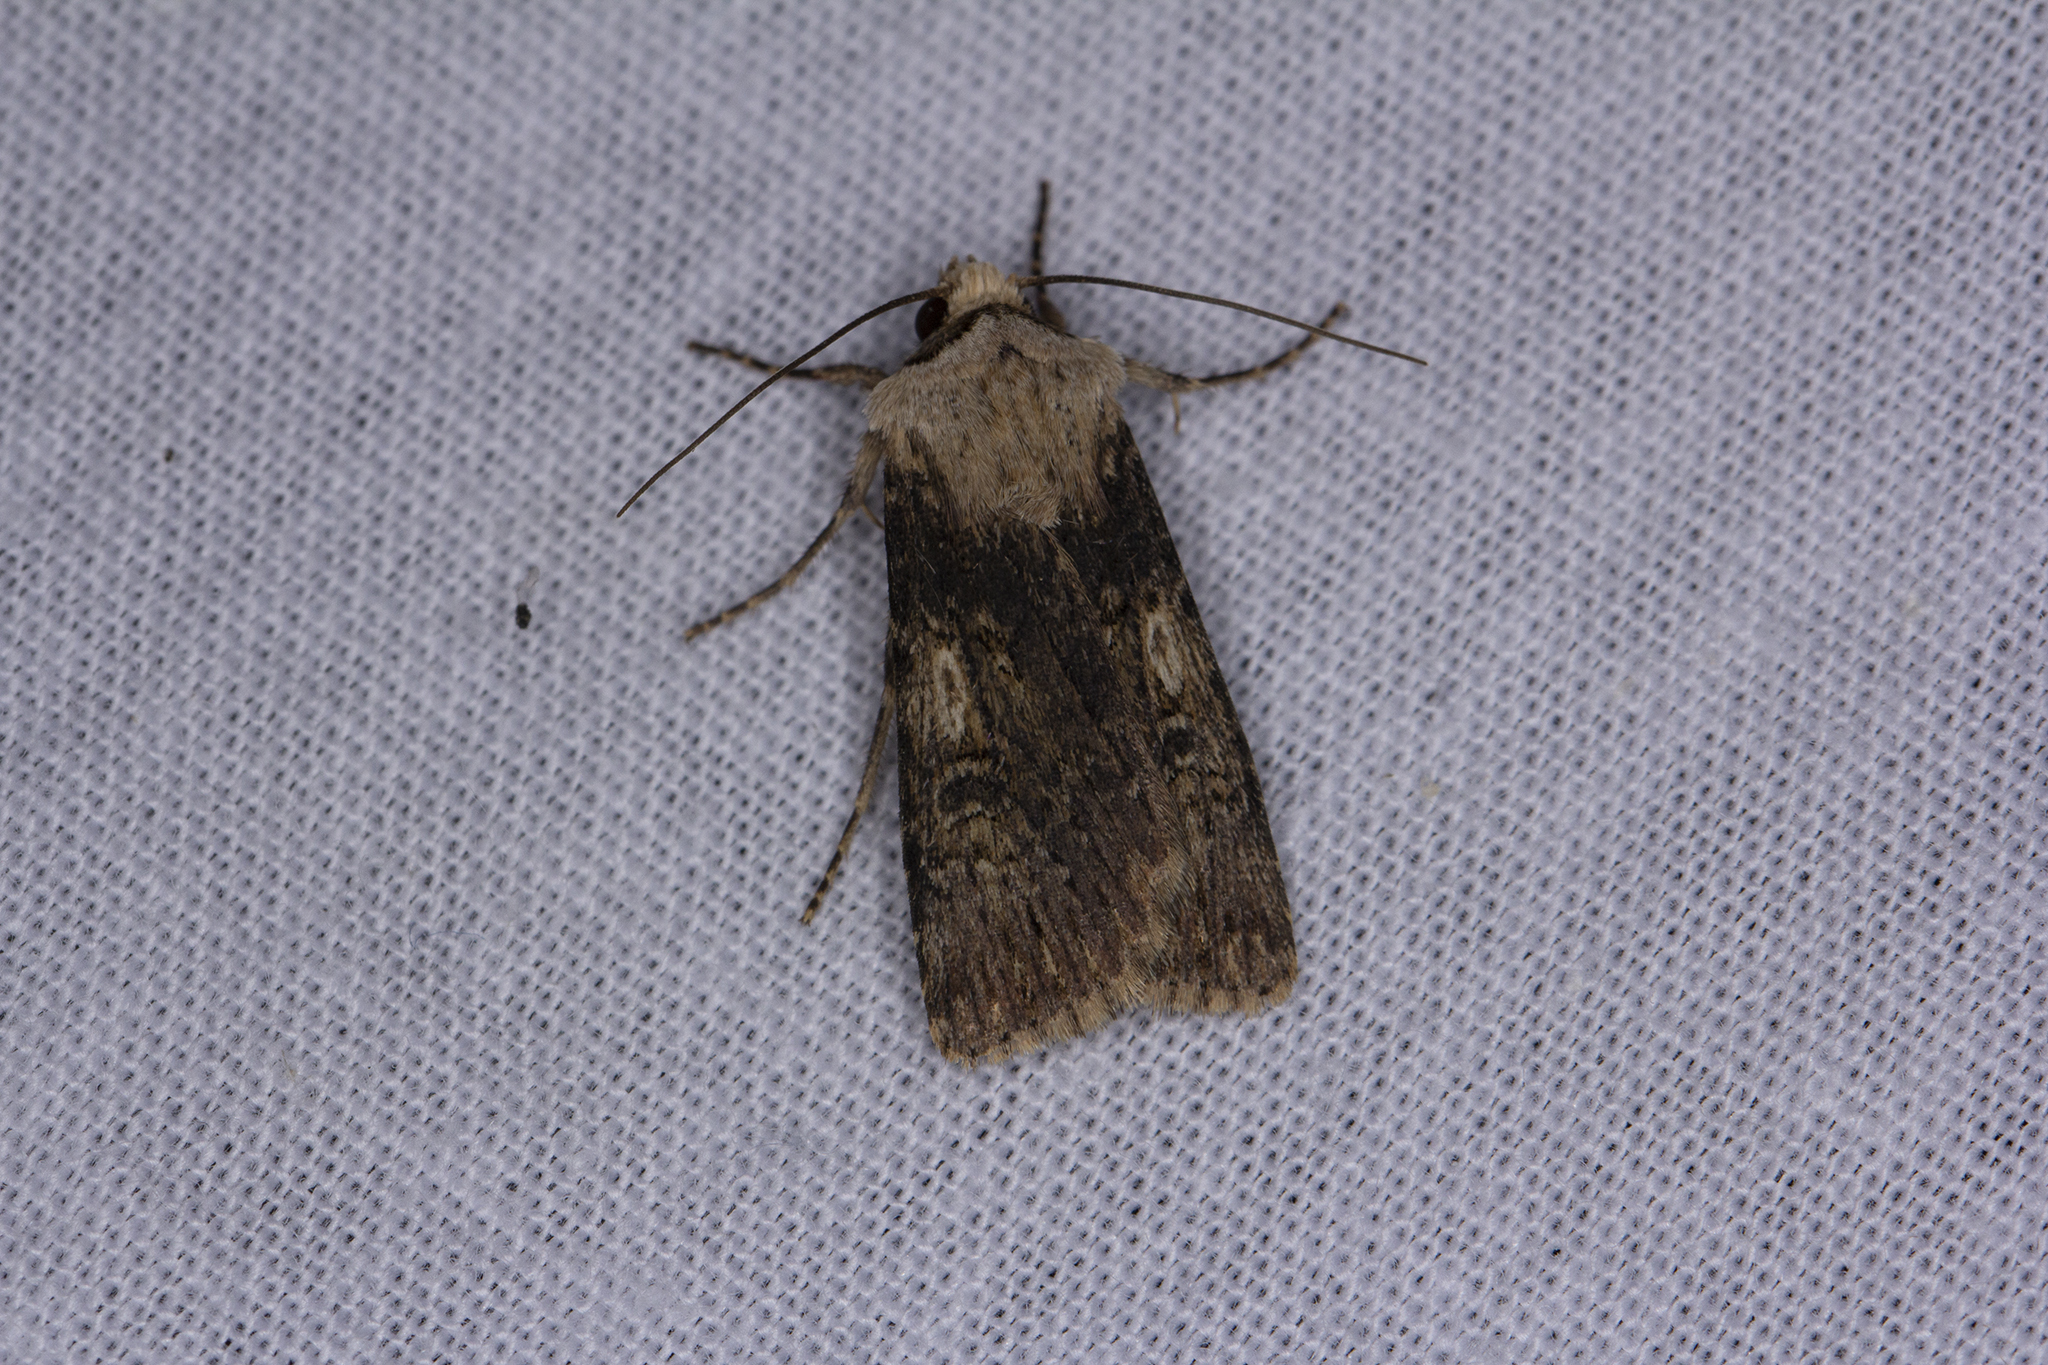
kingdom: Animalia
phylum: Arthropoda
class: Insecta
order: Lepidoptera
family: Noctuidae
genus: Agrotis
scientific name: Agrotis puta
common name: Shuttle-shaped dart
